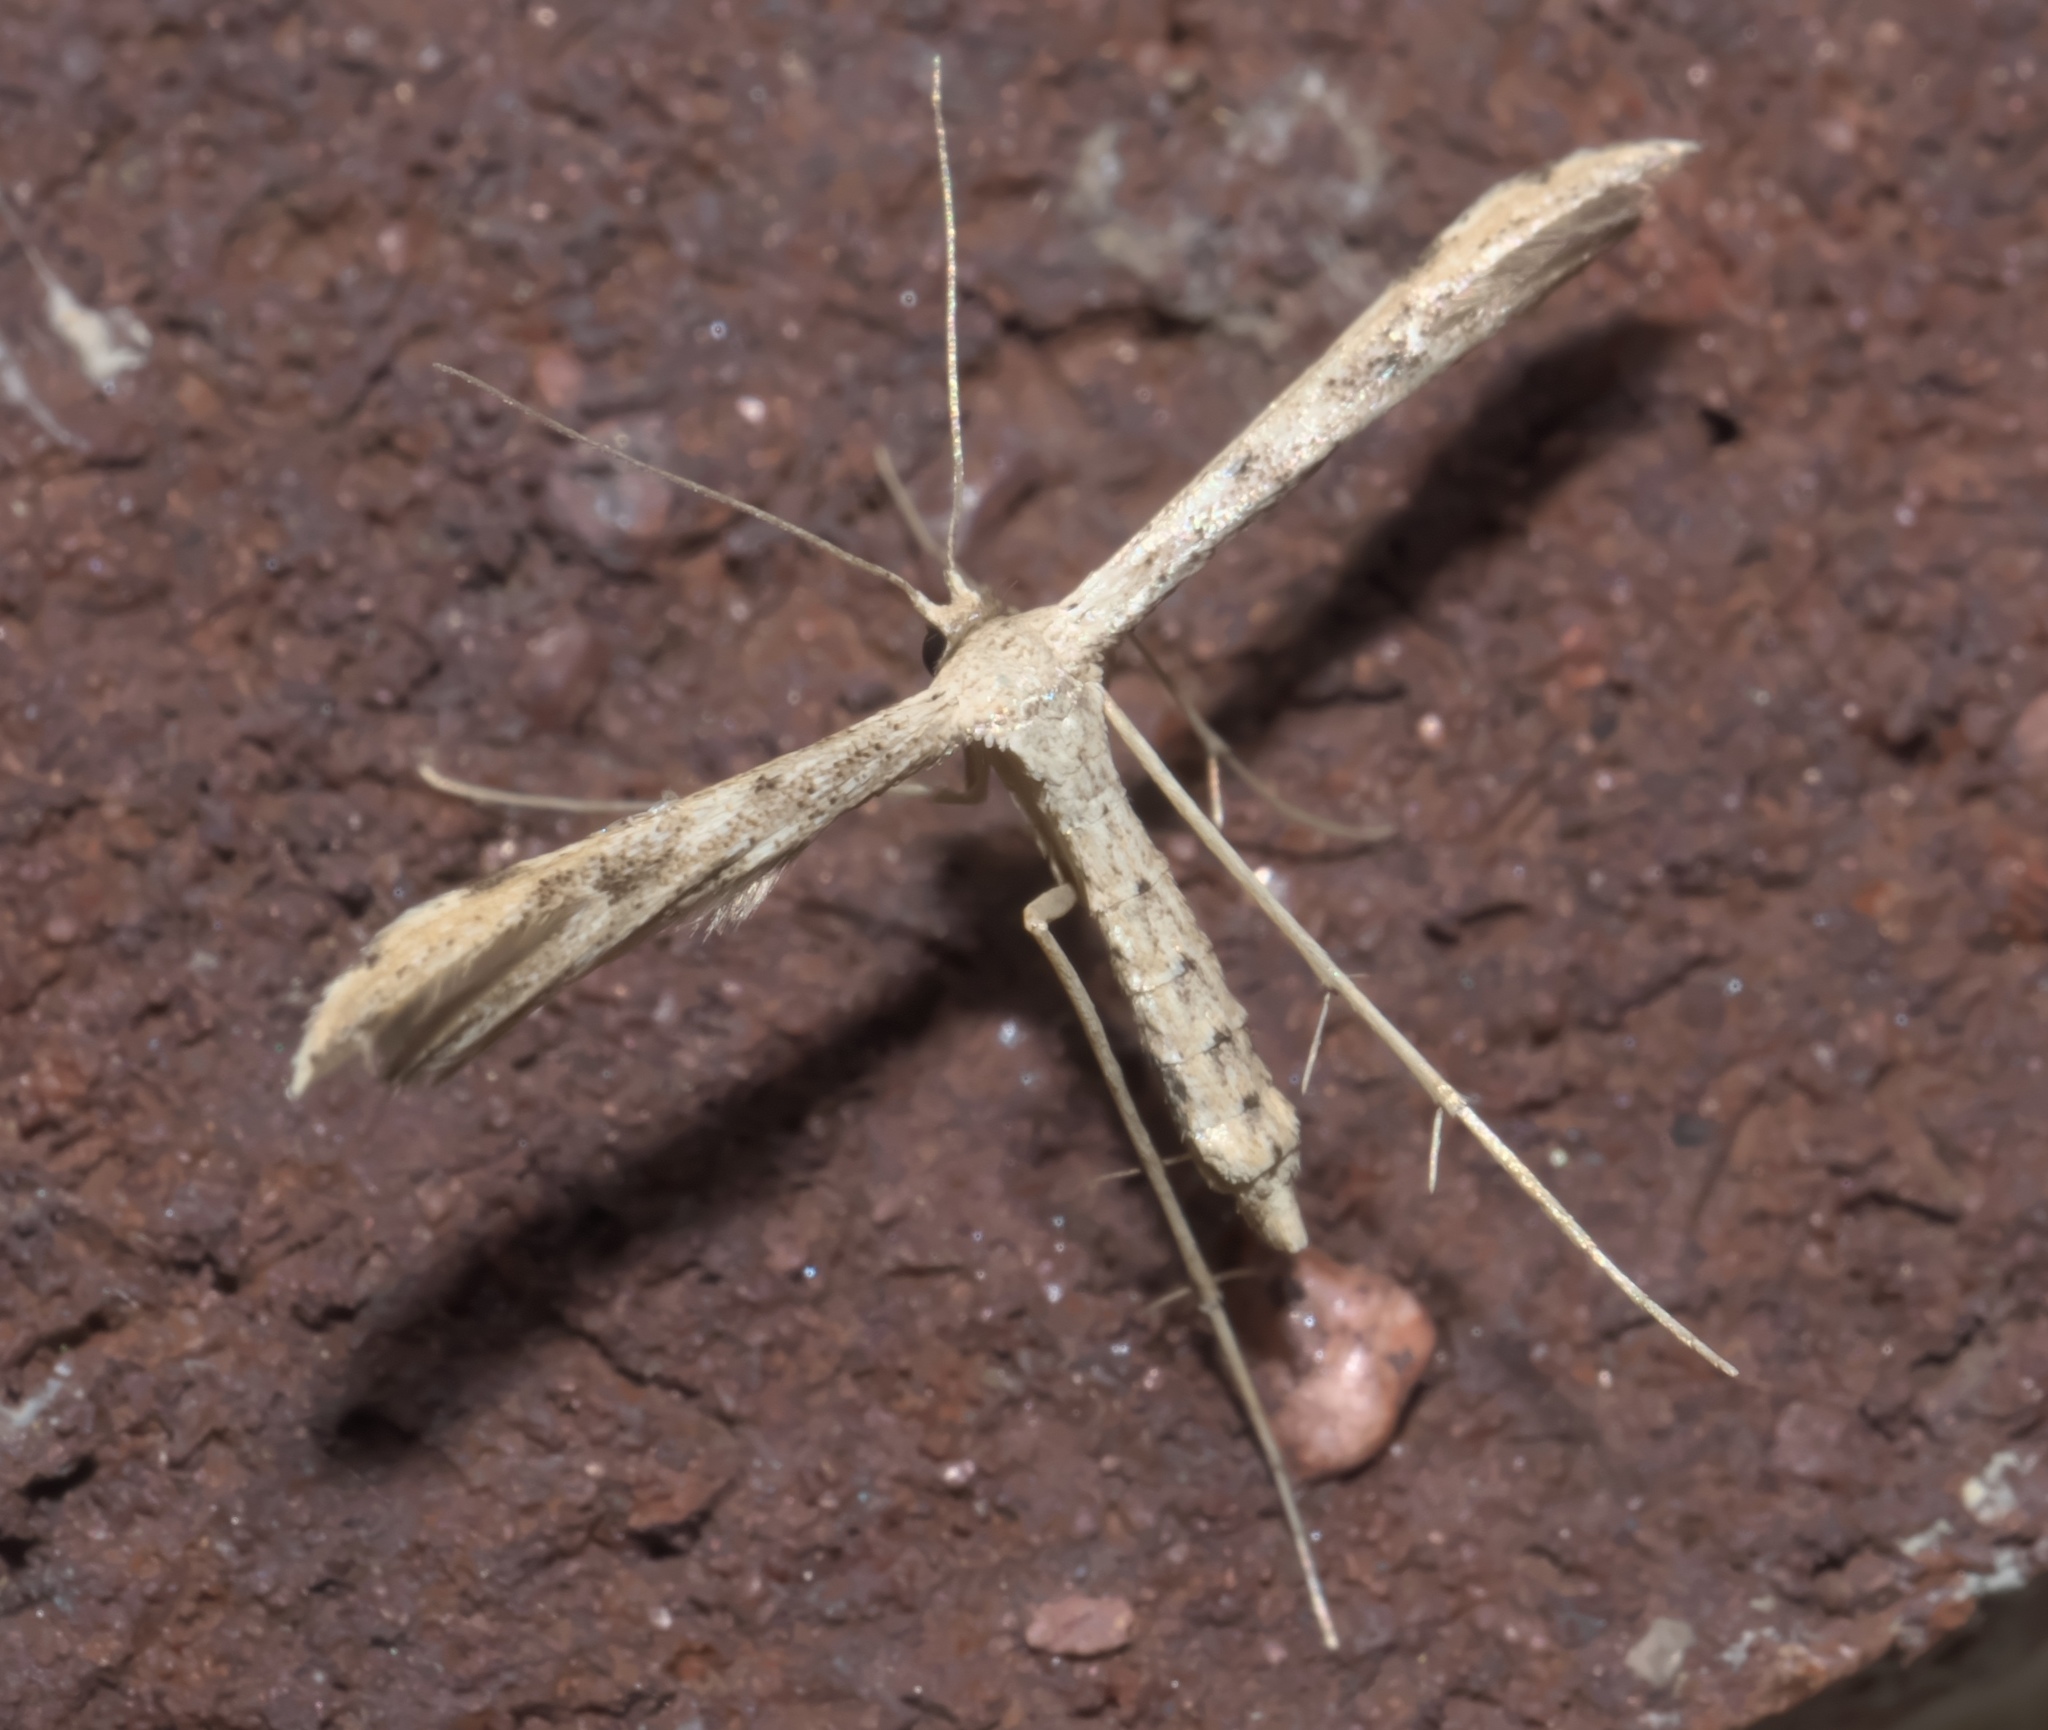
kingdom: Animalia
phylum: Arthropoda
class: Insecta
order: Lepidoptera
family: Pterophoridae
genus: Adaina
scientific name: Adaina ambrosiae
